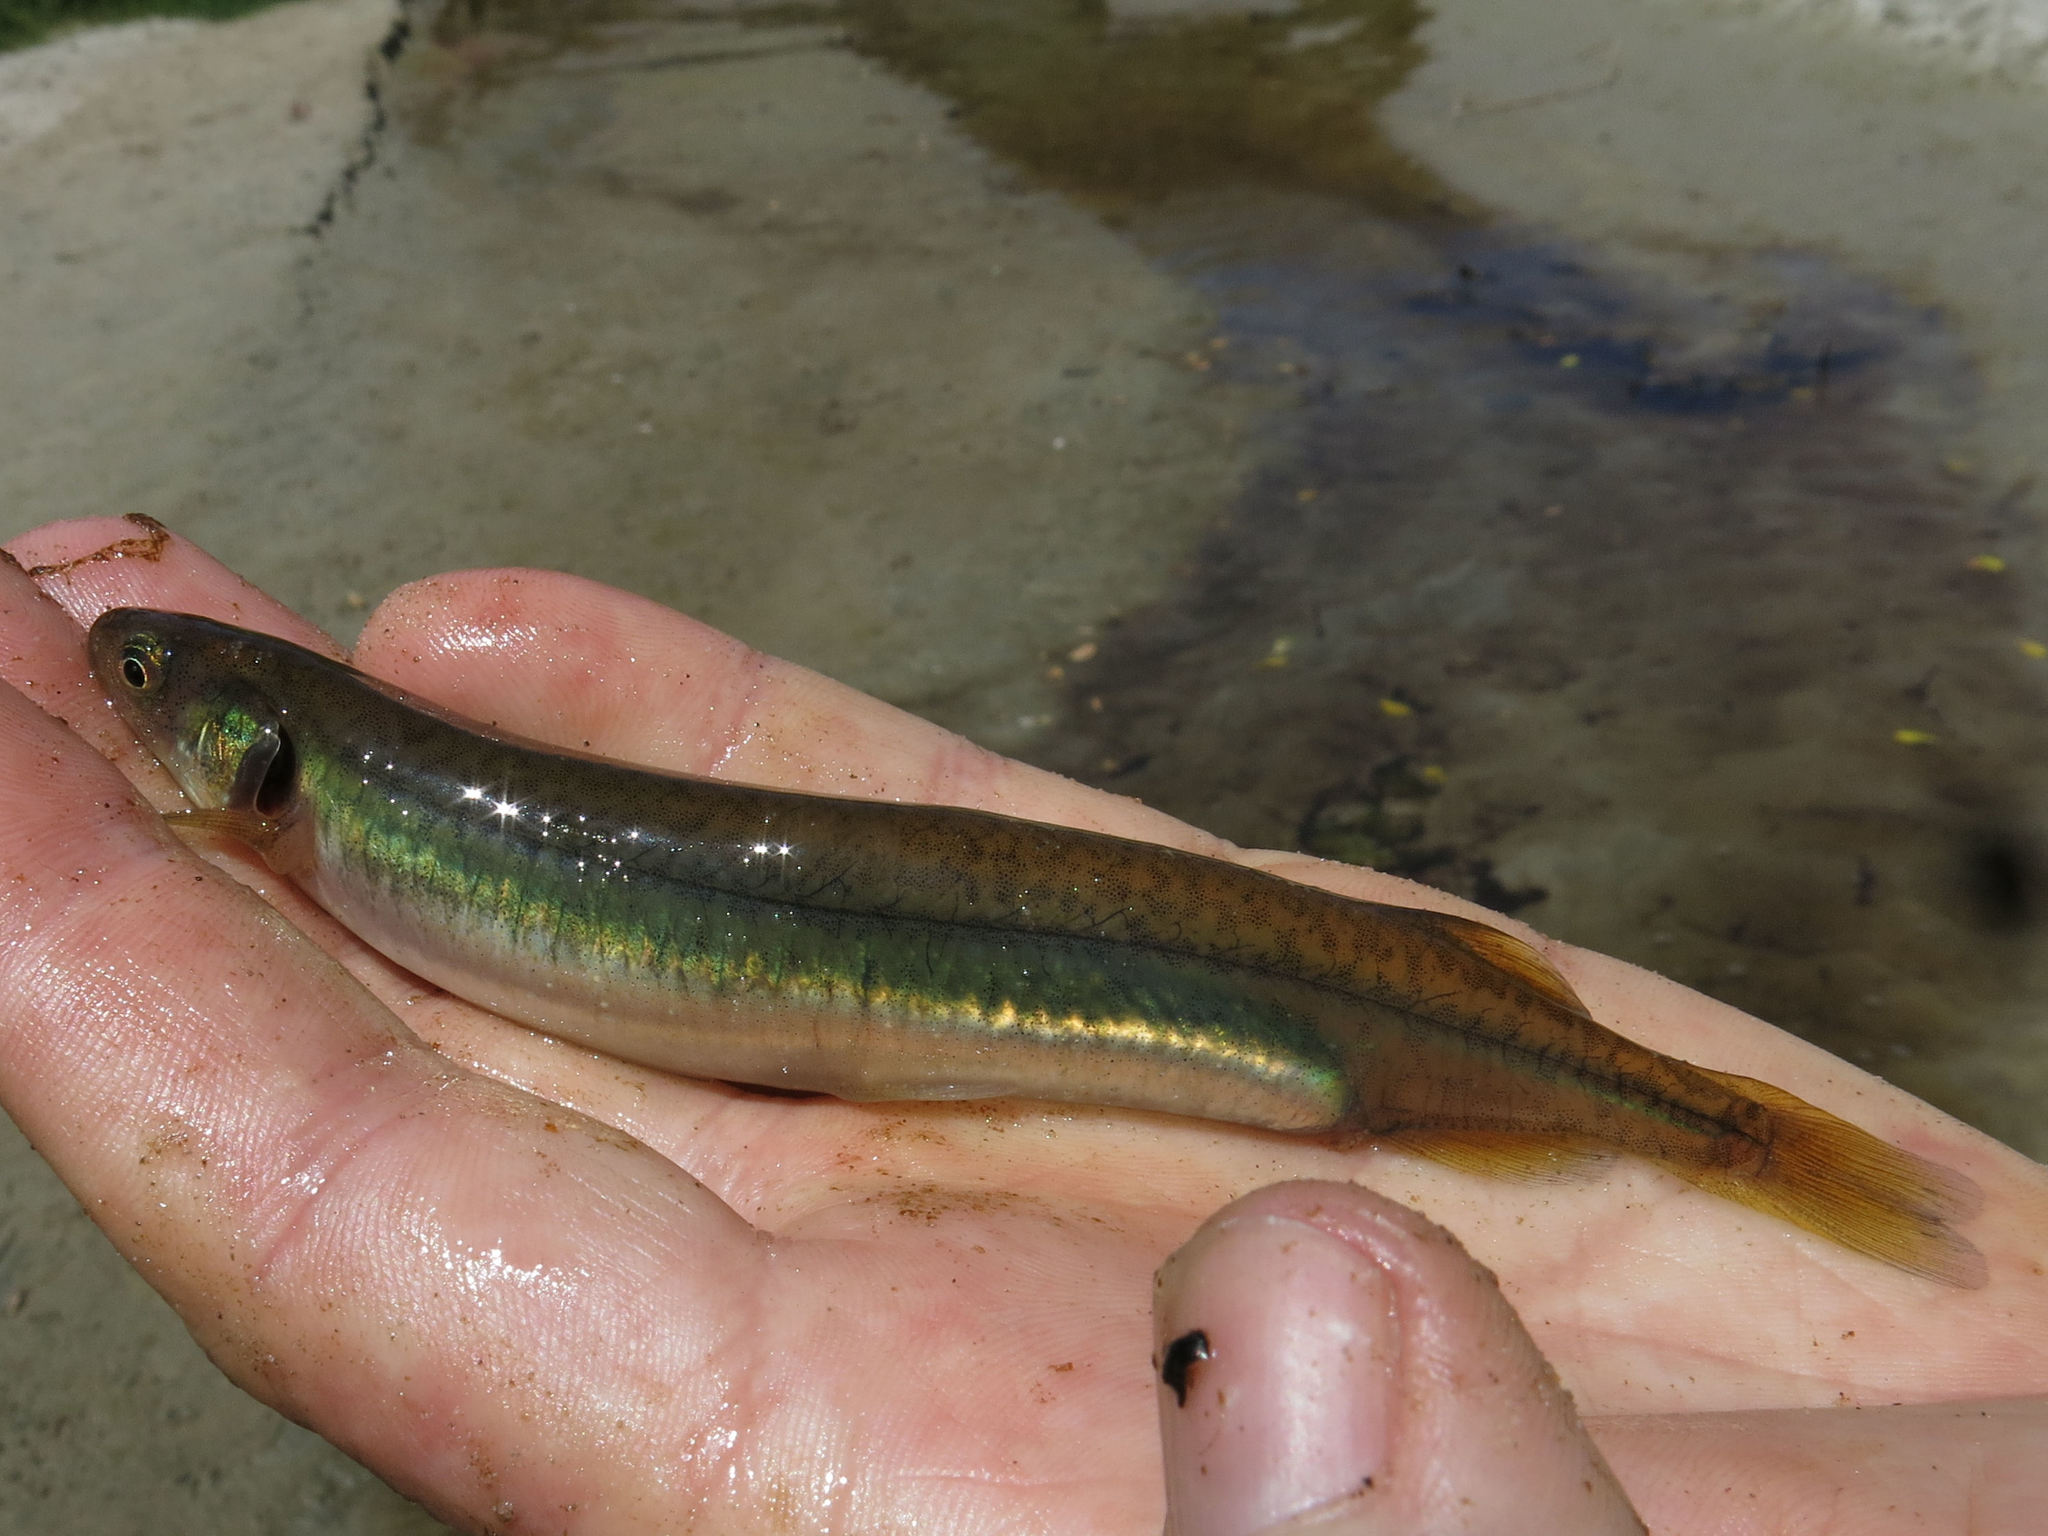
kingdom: Animalia
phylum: Chordata
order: Osmeriformes
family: Galaxiidae
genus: Galaxias
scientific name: Galaxias maculatus
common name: Common galaxias
